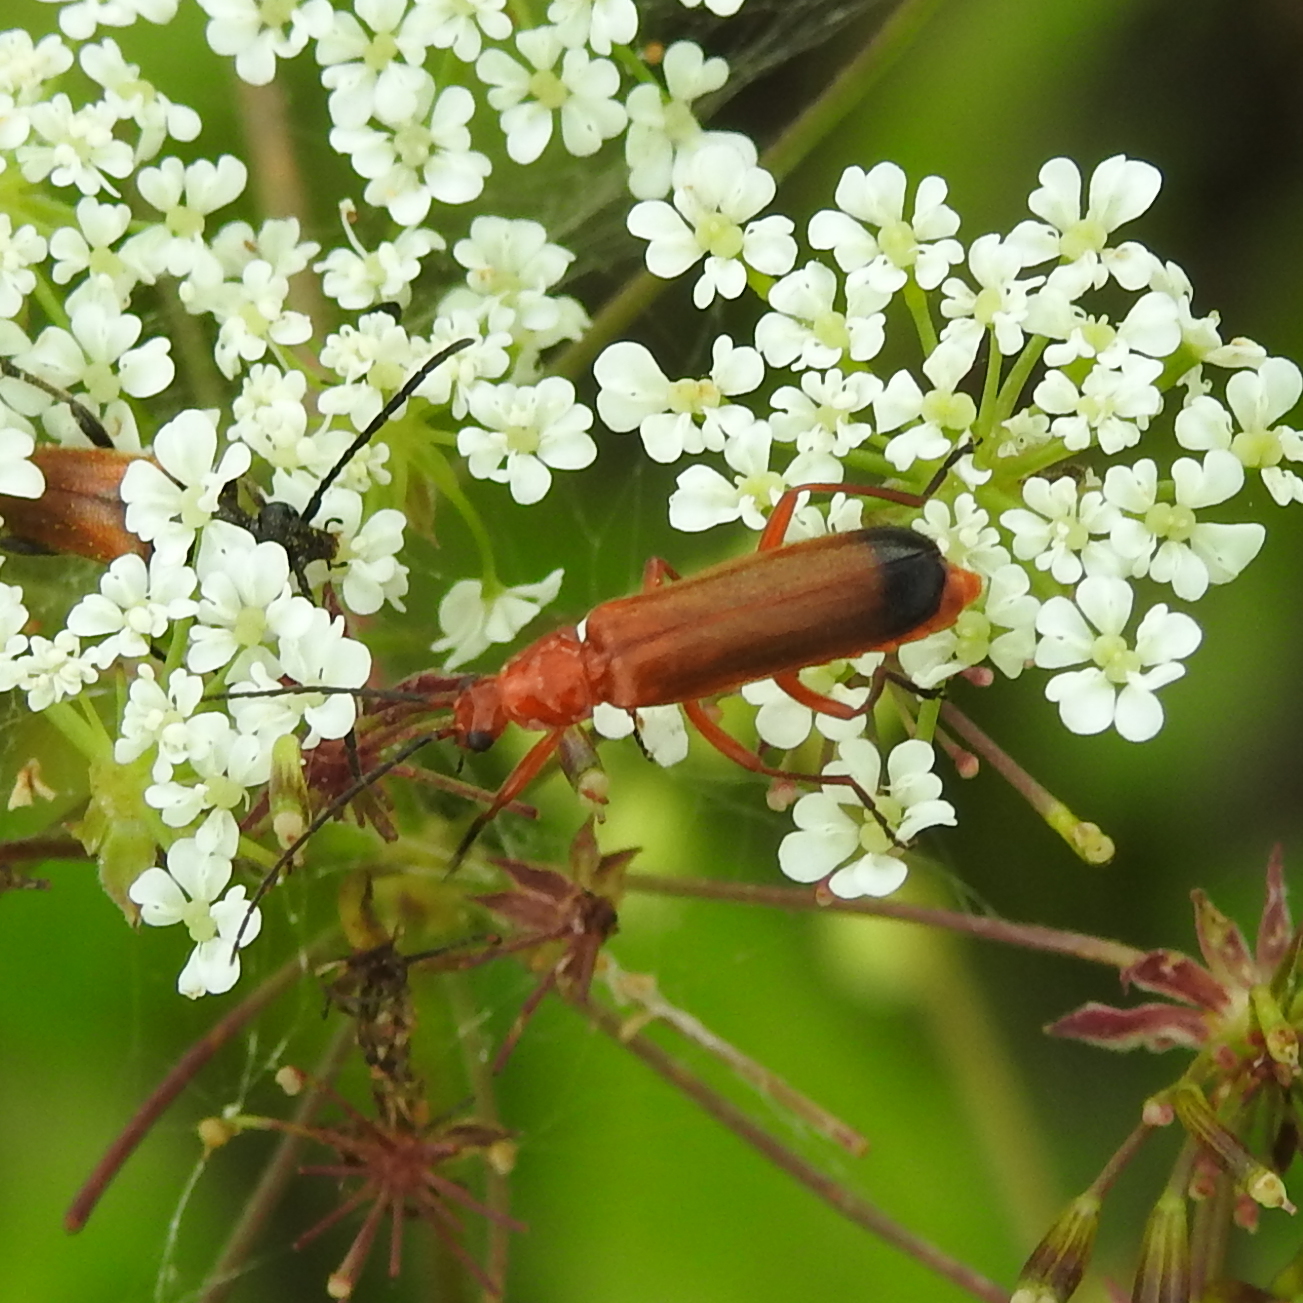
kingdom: Animalia
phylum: Arthropoda
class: Insecta
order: Coleoptera
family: Cantharidae
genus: Rhagonycha
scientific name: Rhagonycha fulva
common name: Common red soldier beetle
